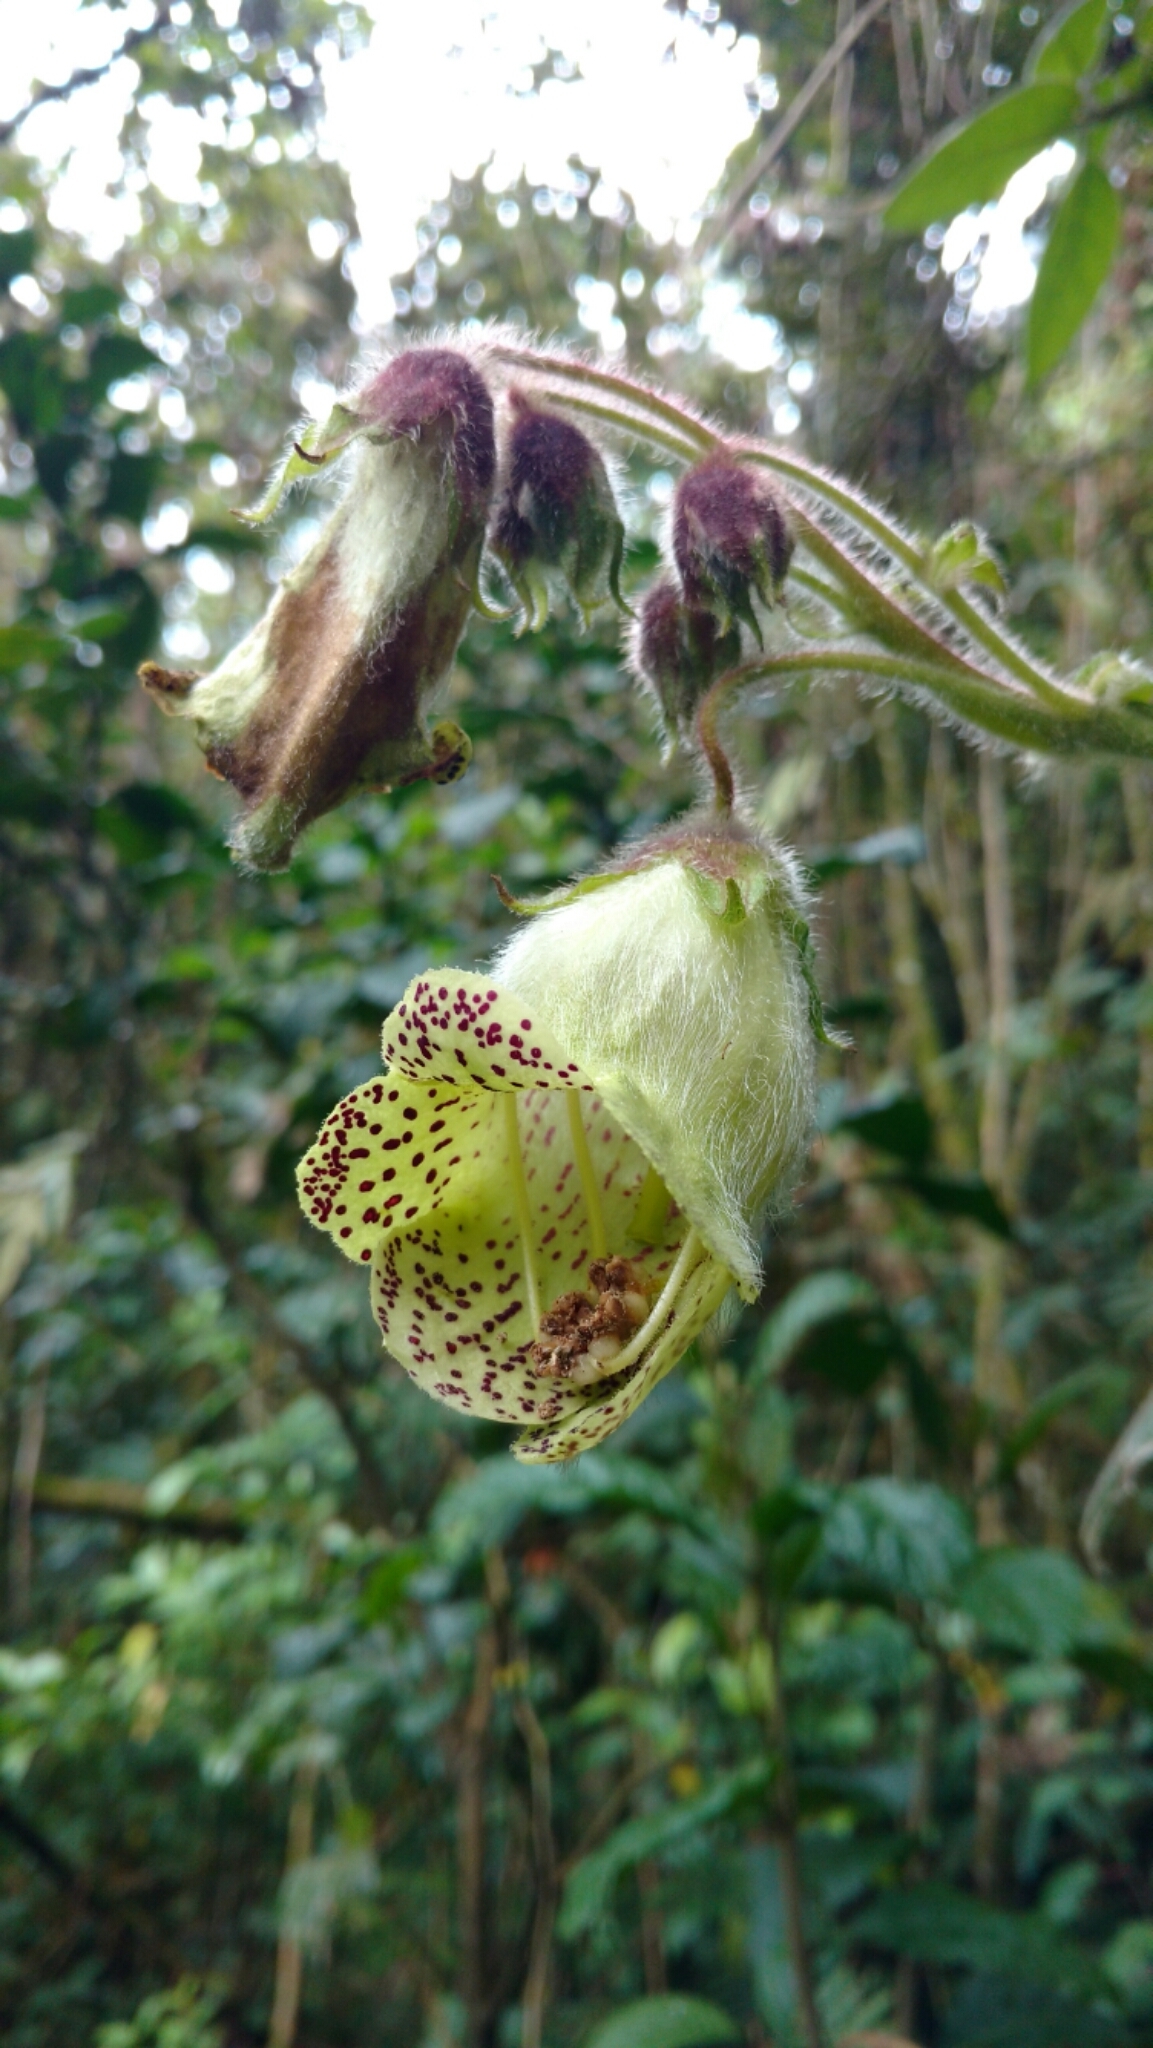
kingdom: Plantae
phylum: Tracheophyta
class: Magnoliopsida
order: Lamiales
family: Gesneriaceae
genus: Kohleria
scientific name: Kohleria tigridia
